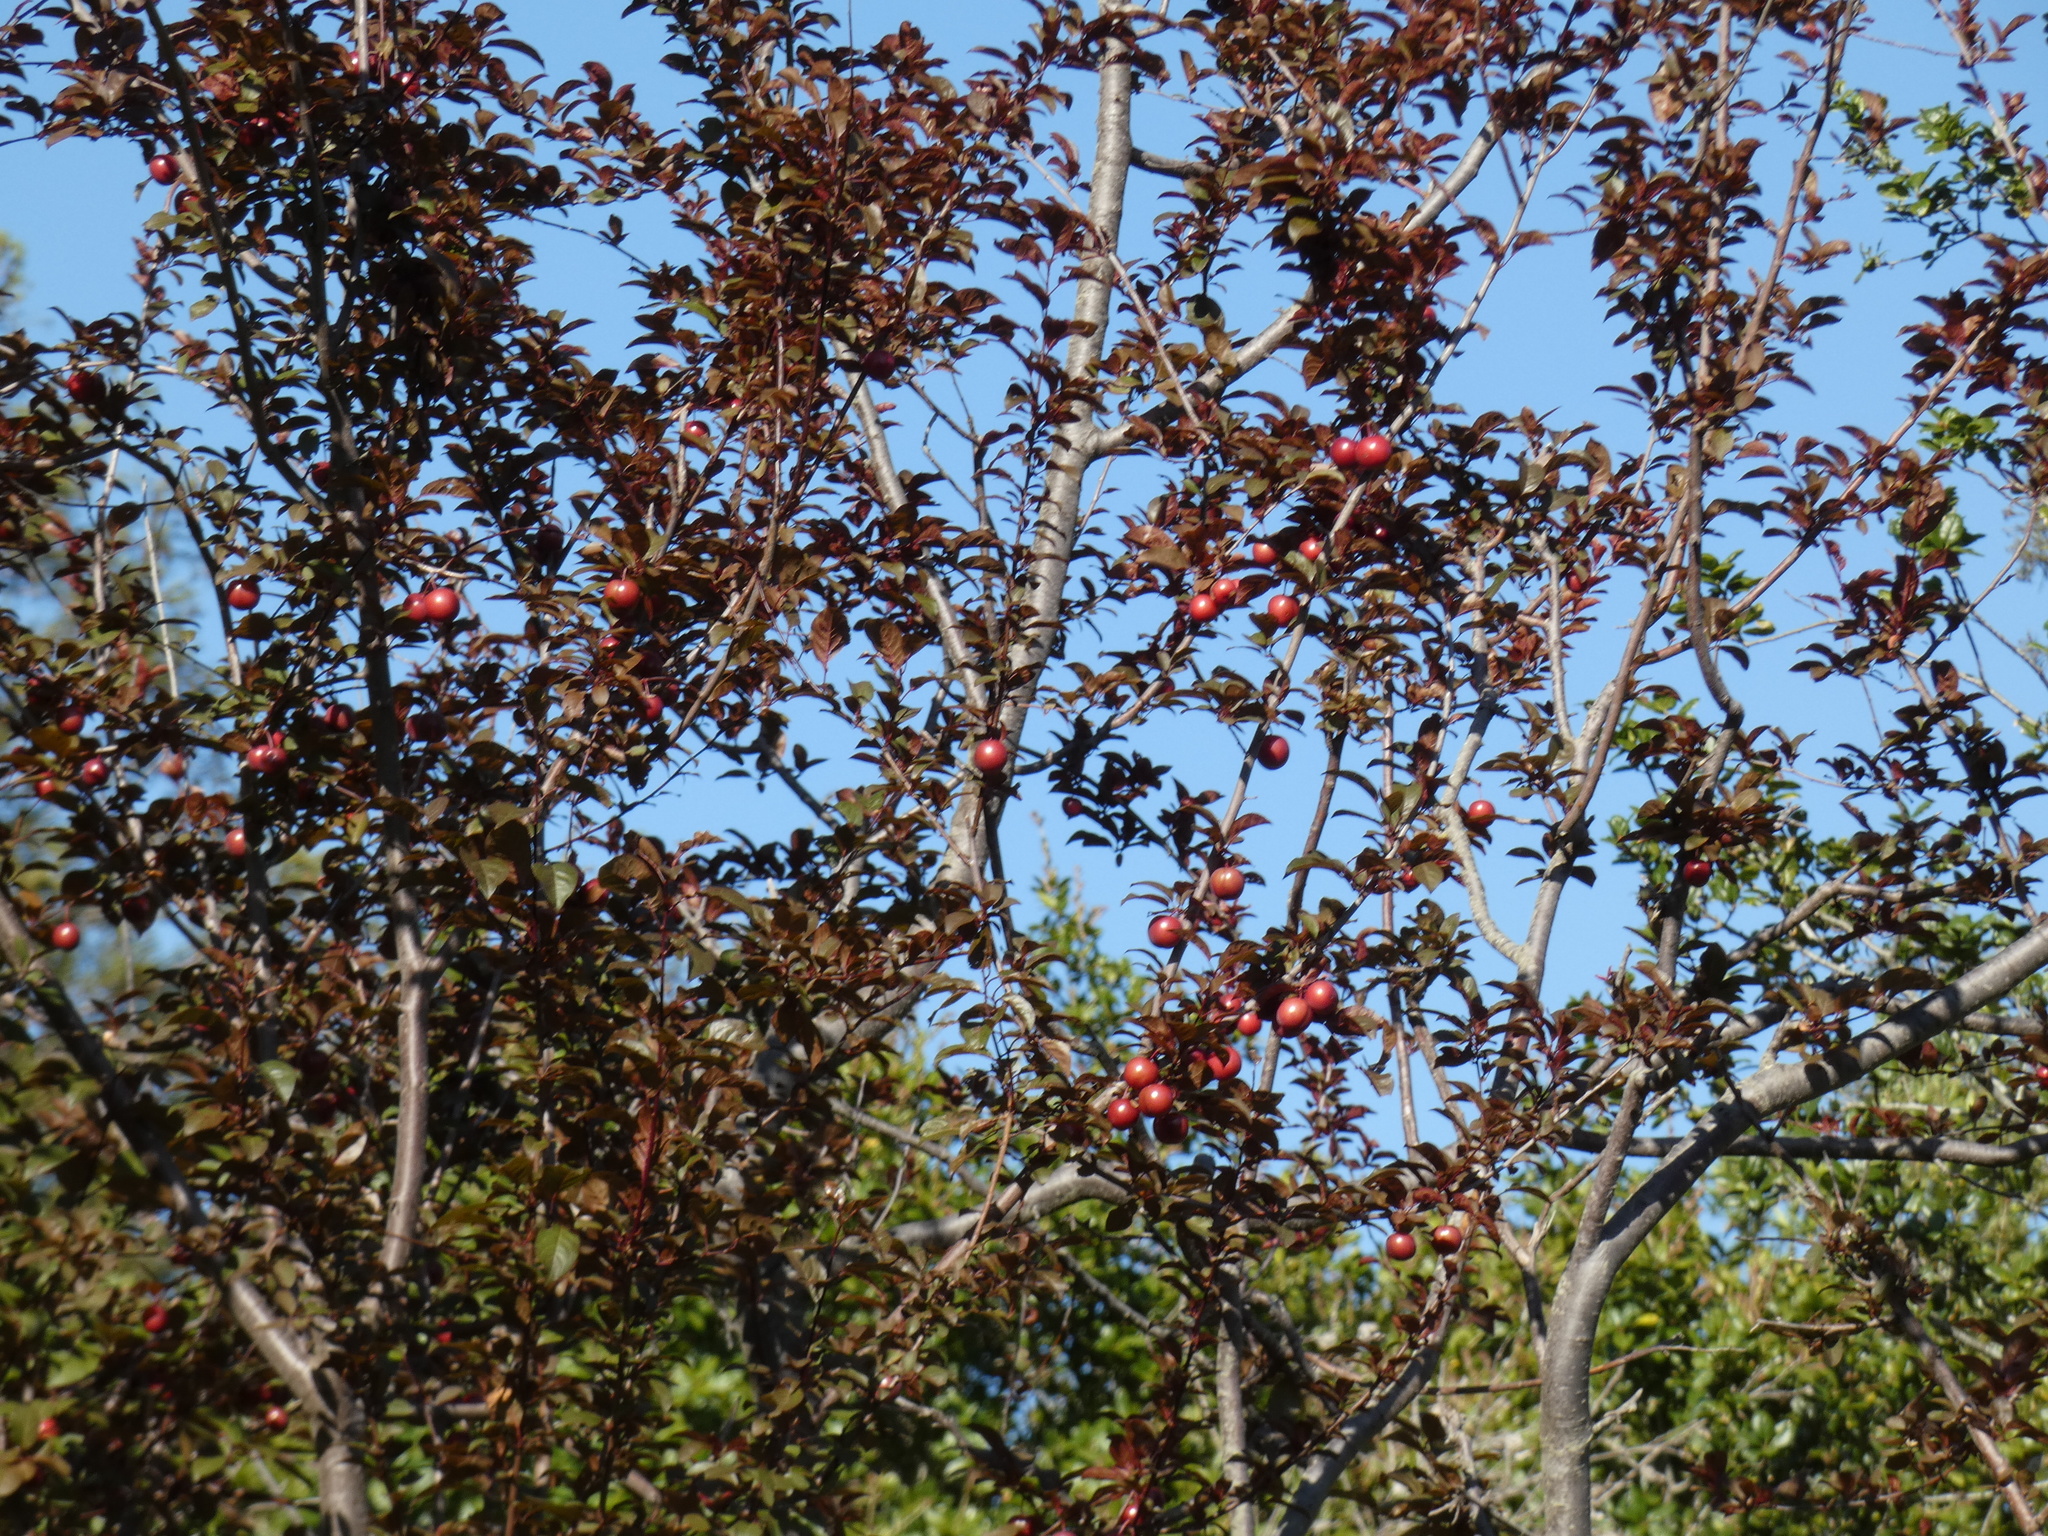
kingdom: Plantae
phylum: Tracheophyta
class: Magnoliopsida
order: Rosales
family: Rosaceae
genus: Prunus
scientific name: Prunus cerasifera
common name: Cherry plum
